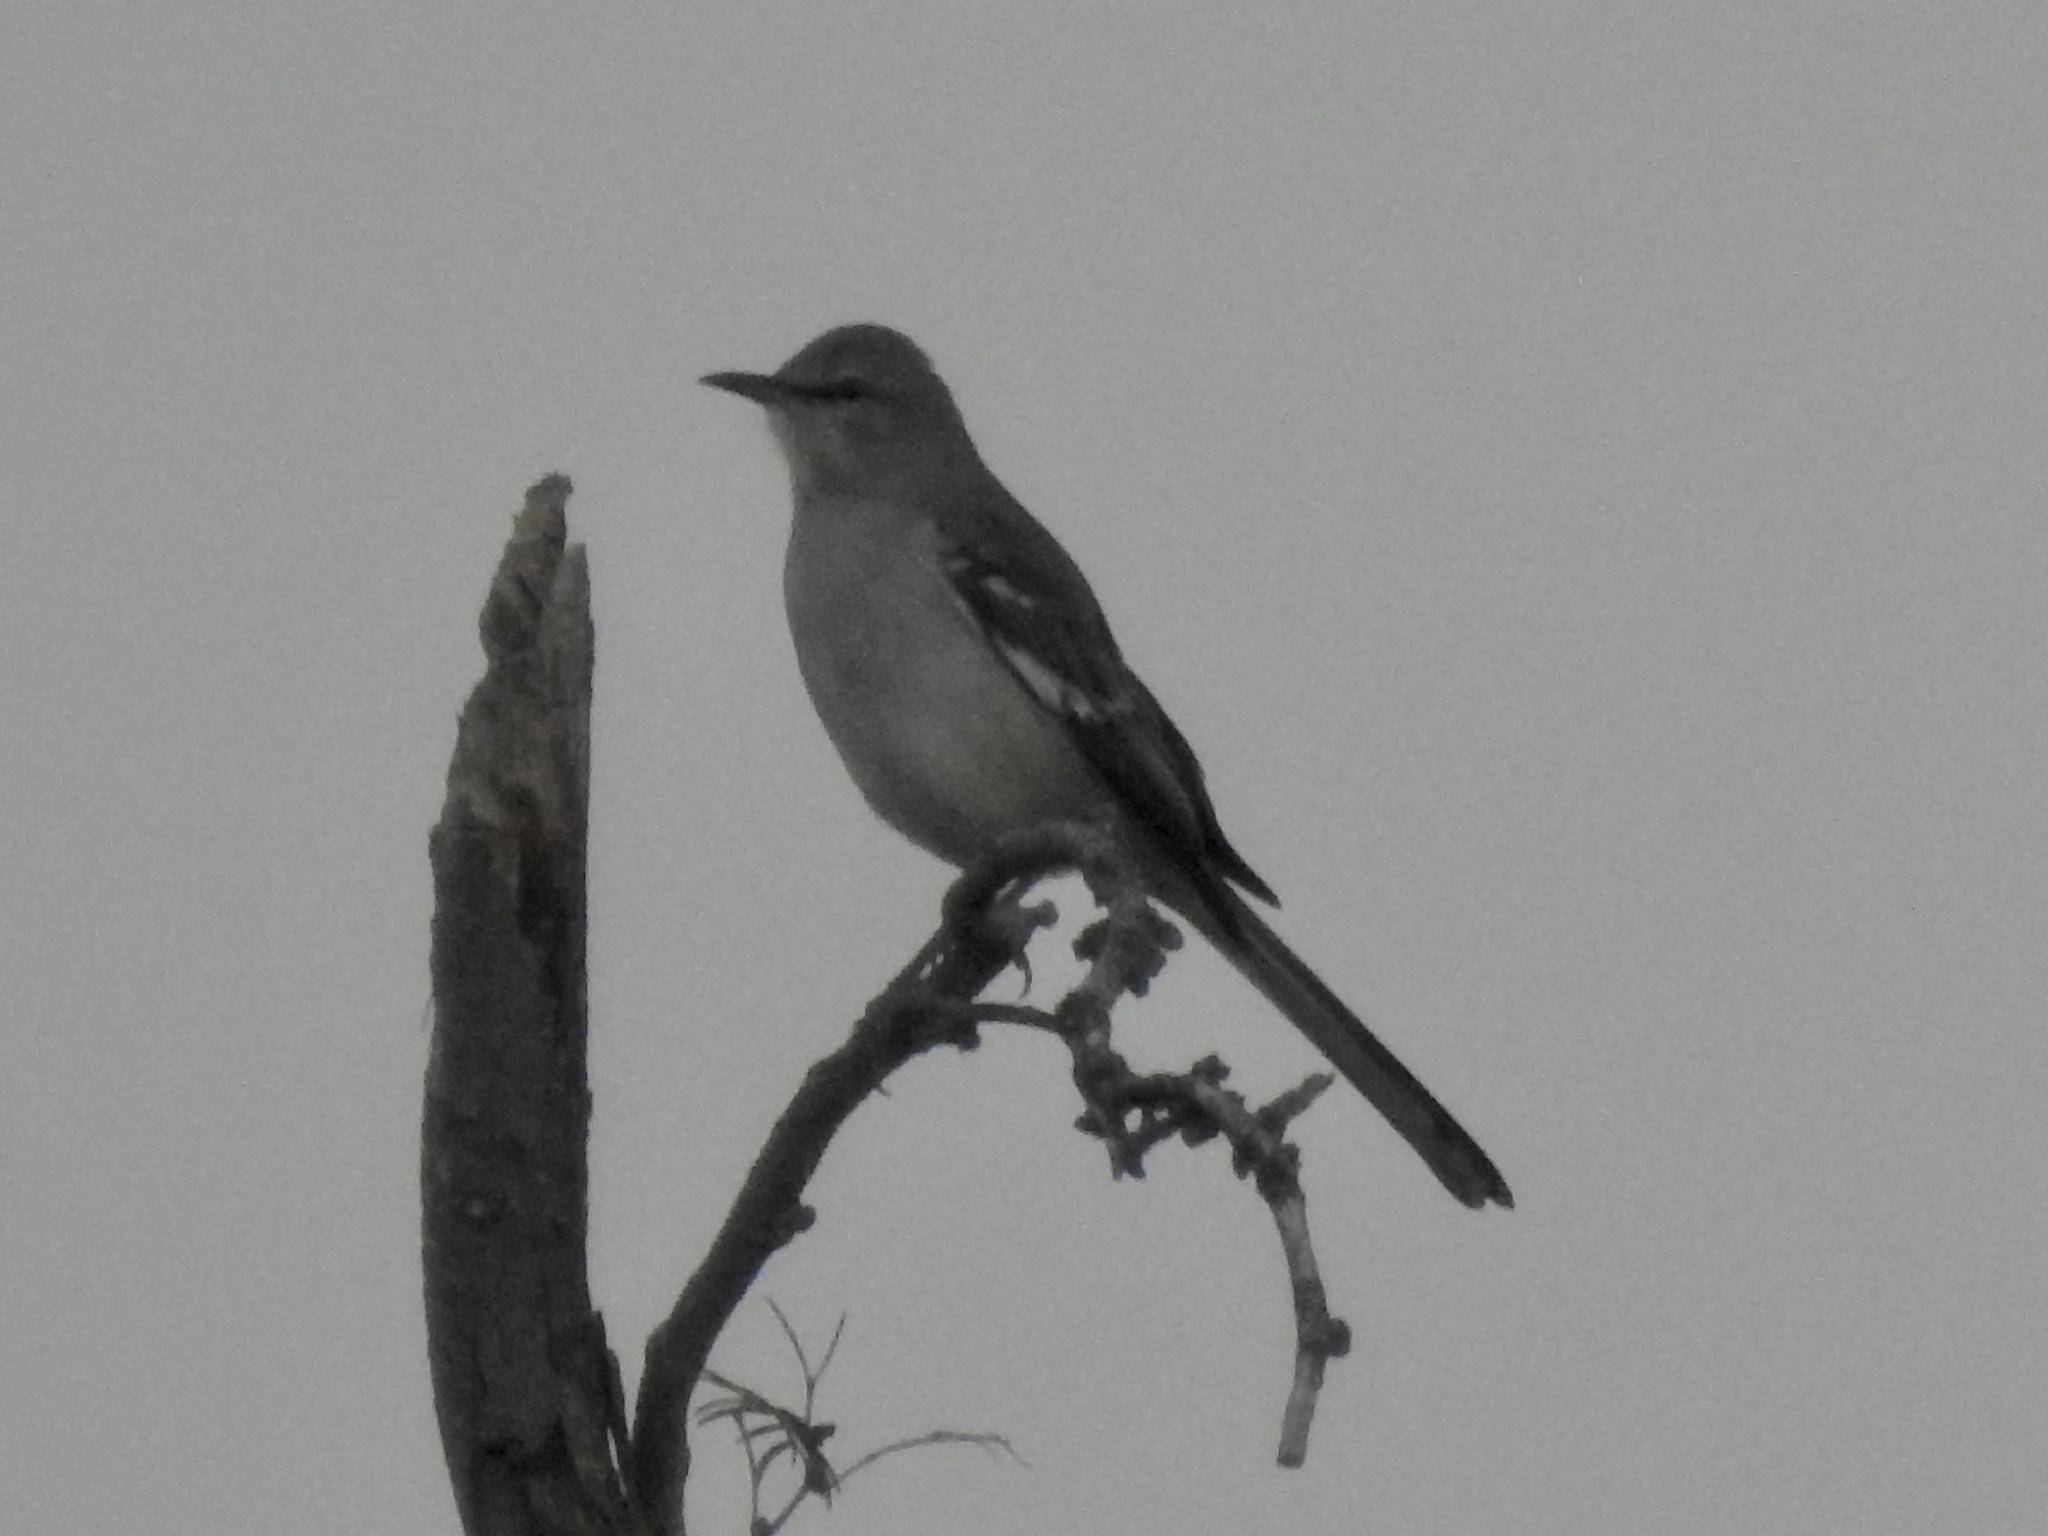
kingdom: Animalia
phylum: Chordata
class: Aves
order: Passeriformes
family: Mimidae
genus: Mimus
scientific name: Mimus polyglottos
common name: Northern mockingbird
